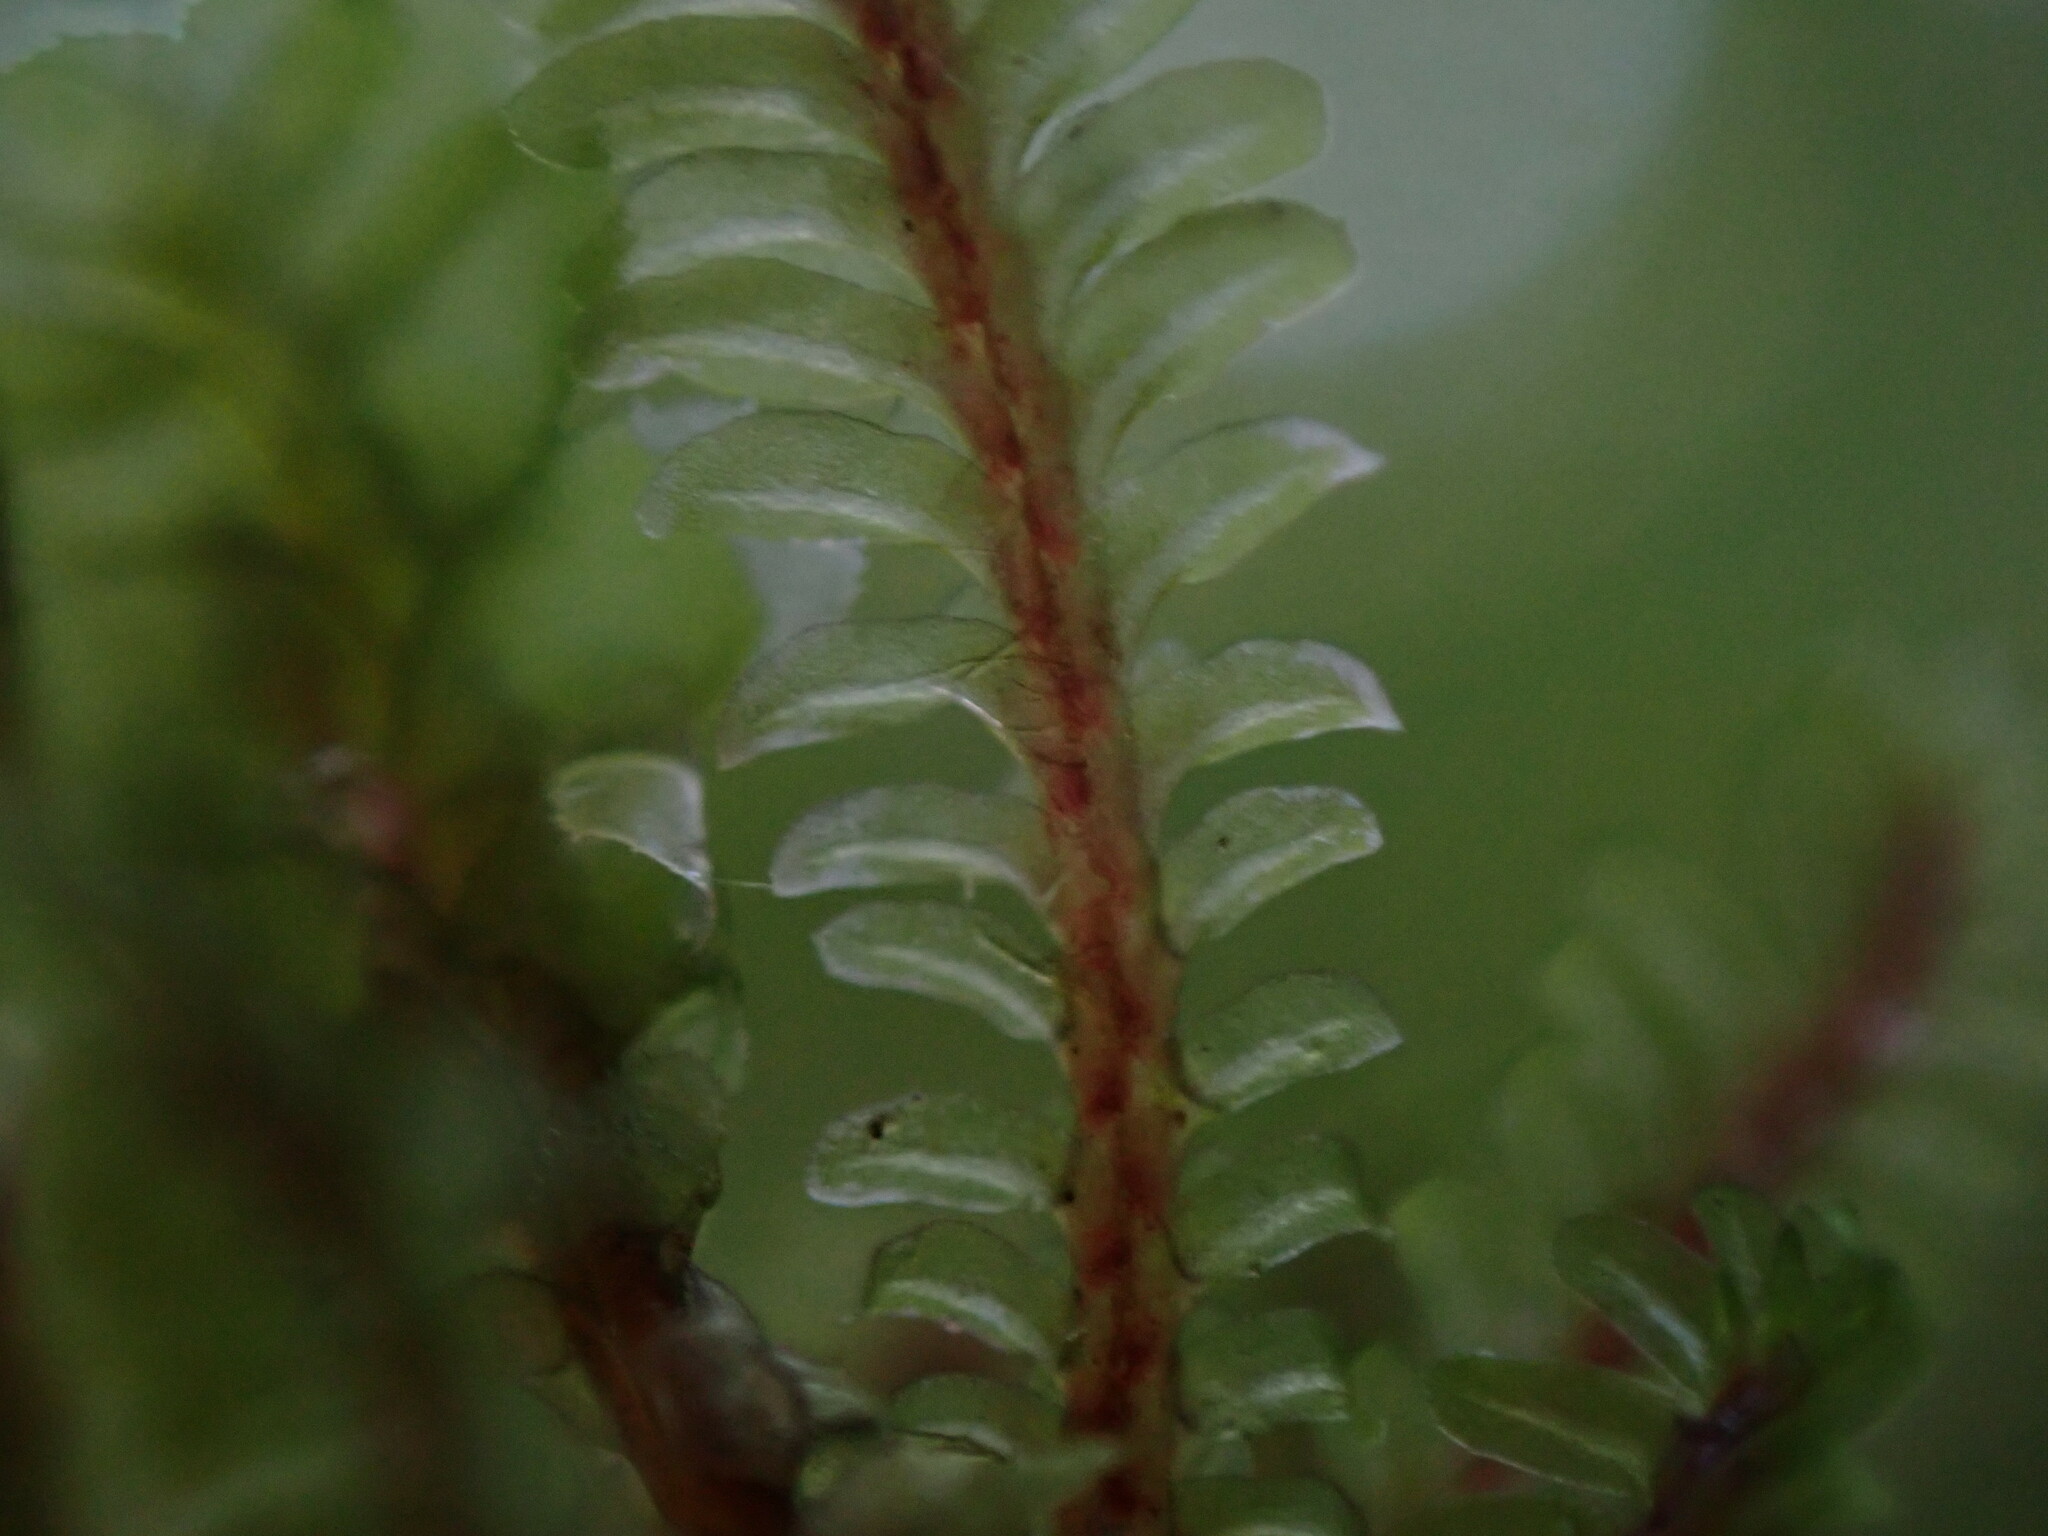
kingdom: Plantae
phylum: Marchantiophyta
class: Jungermanniopsida
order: Jungermanniales
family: Scapaniaceae
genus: Diplophyllum
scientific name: Diplophyllum albicans
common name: White earwort
